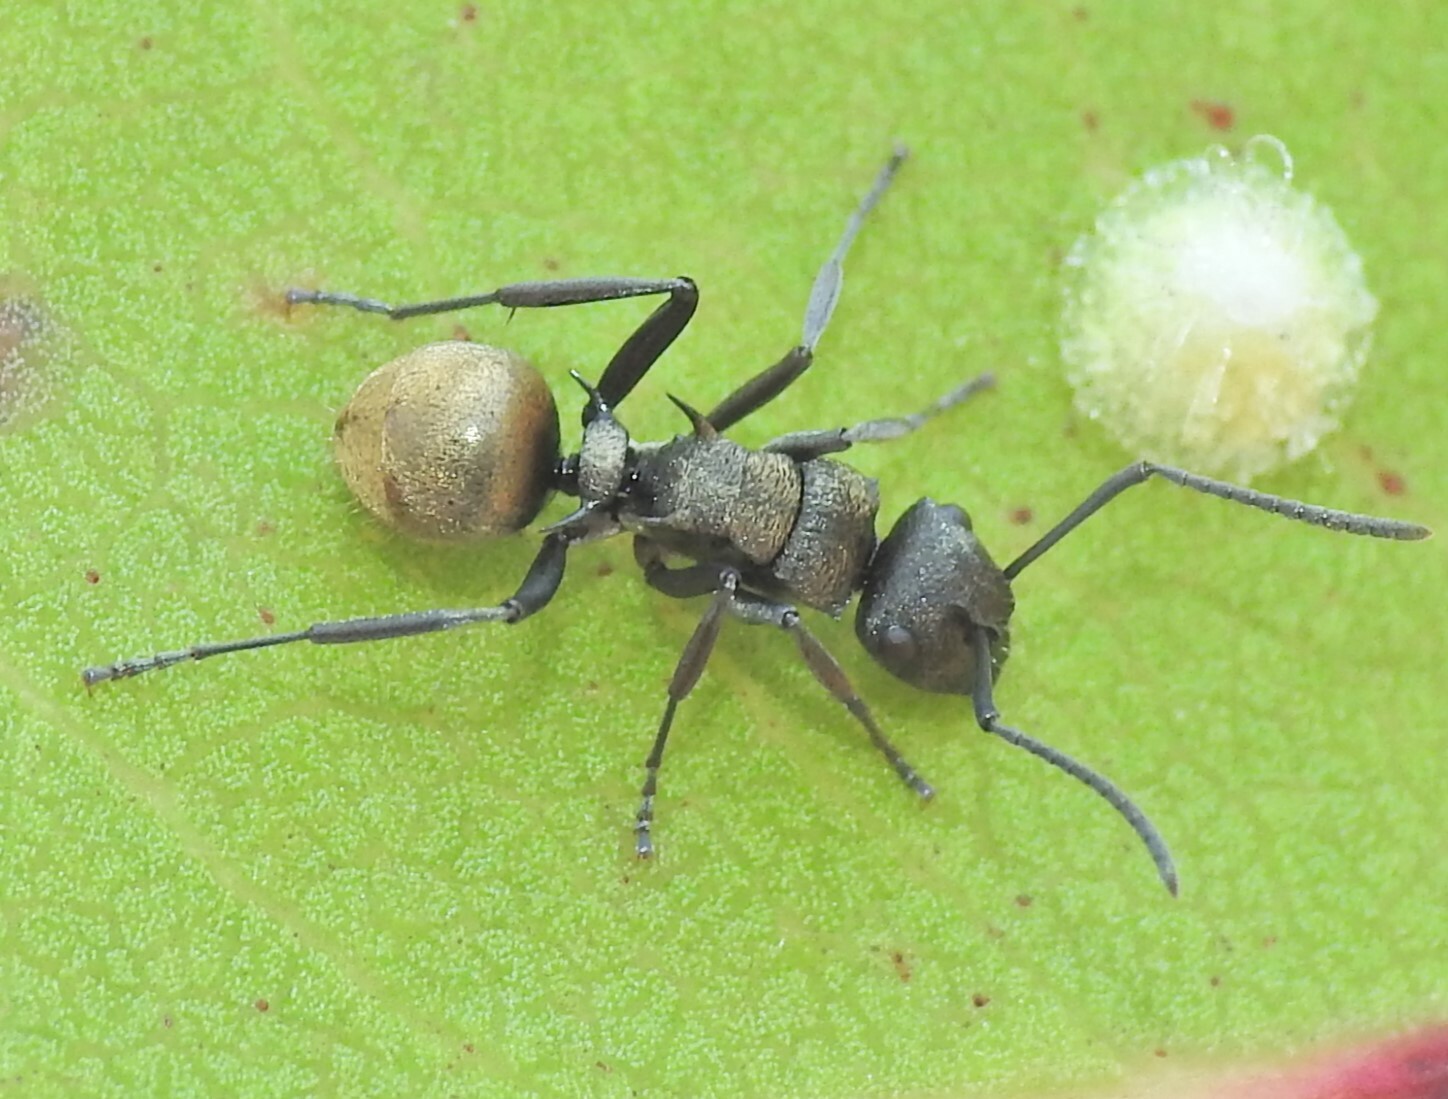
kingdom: Animalia
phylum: Arthropoda
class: Insecta
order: Hymenoptera
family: Formicidae
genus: Polyrhachis
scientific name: Polyrhachis mjobergi
